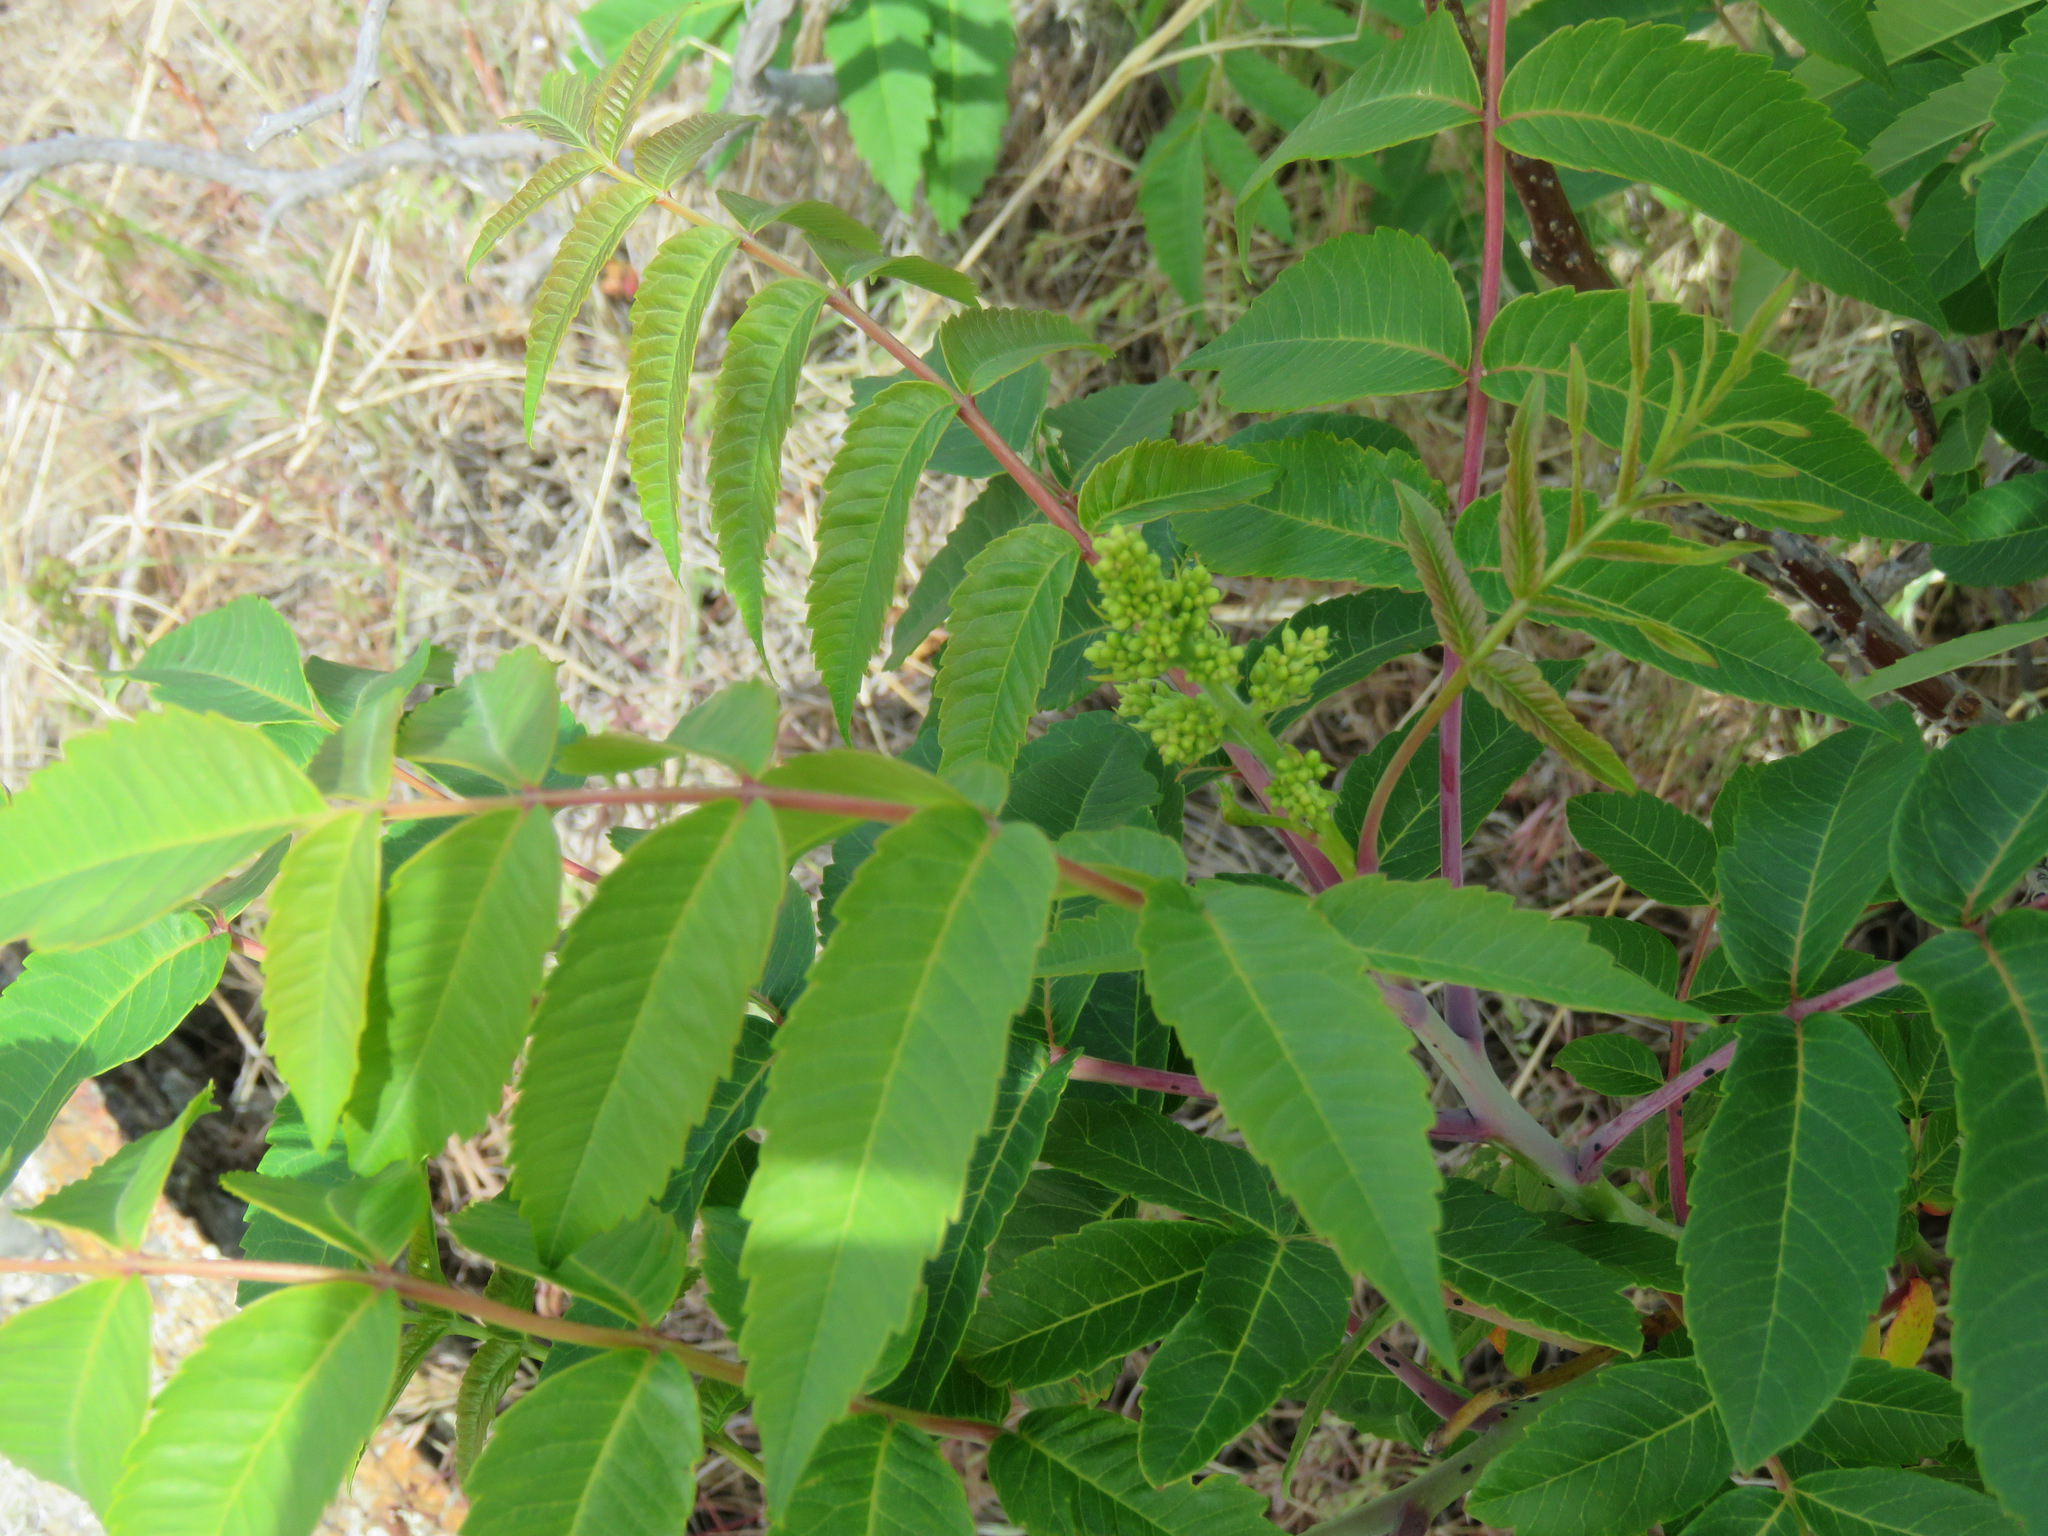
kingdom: Plantae
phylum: Tracheophyta
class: Magnoliopsida
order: Sapindales
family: Anacardiaceae
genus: Rhus
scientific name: Rhus glabra
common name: Scarlet sumac
